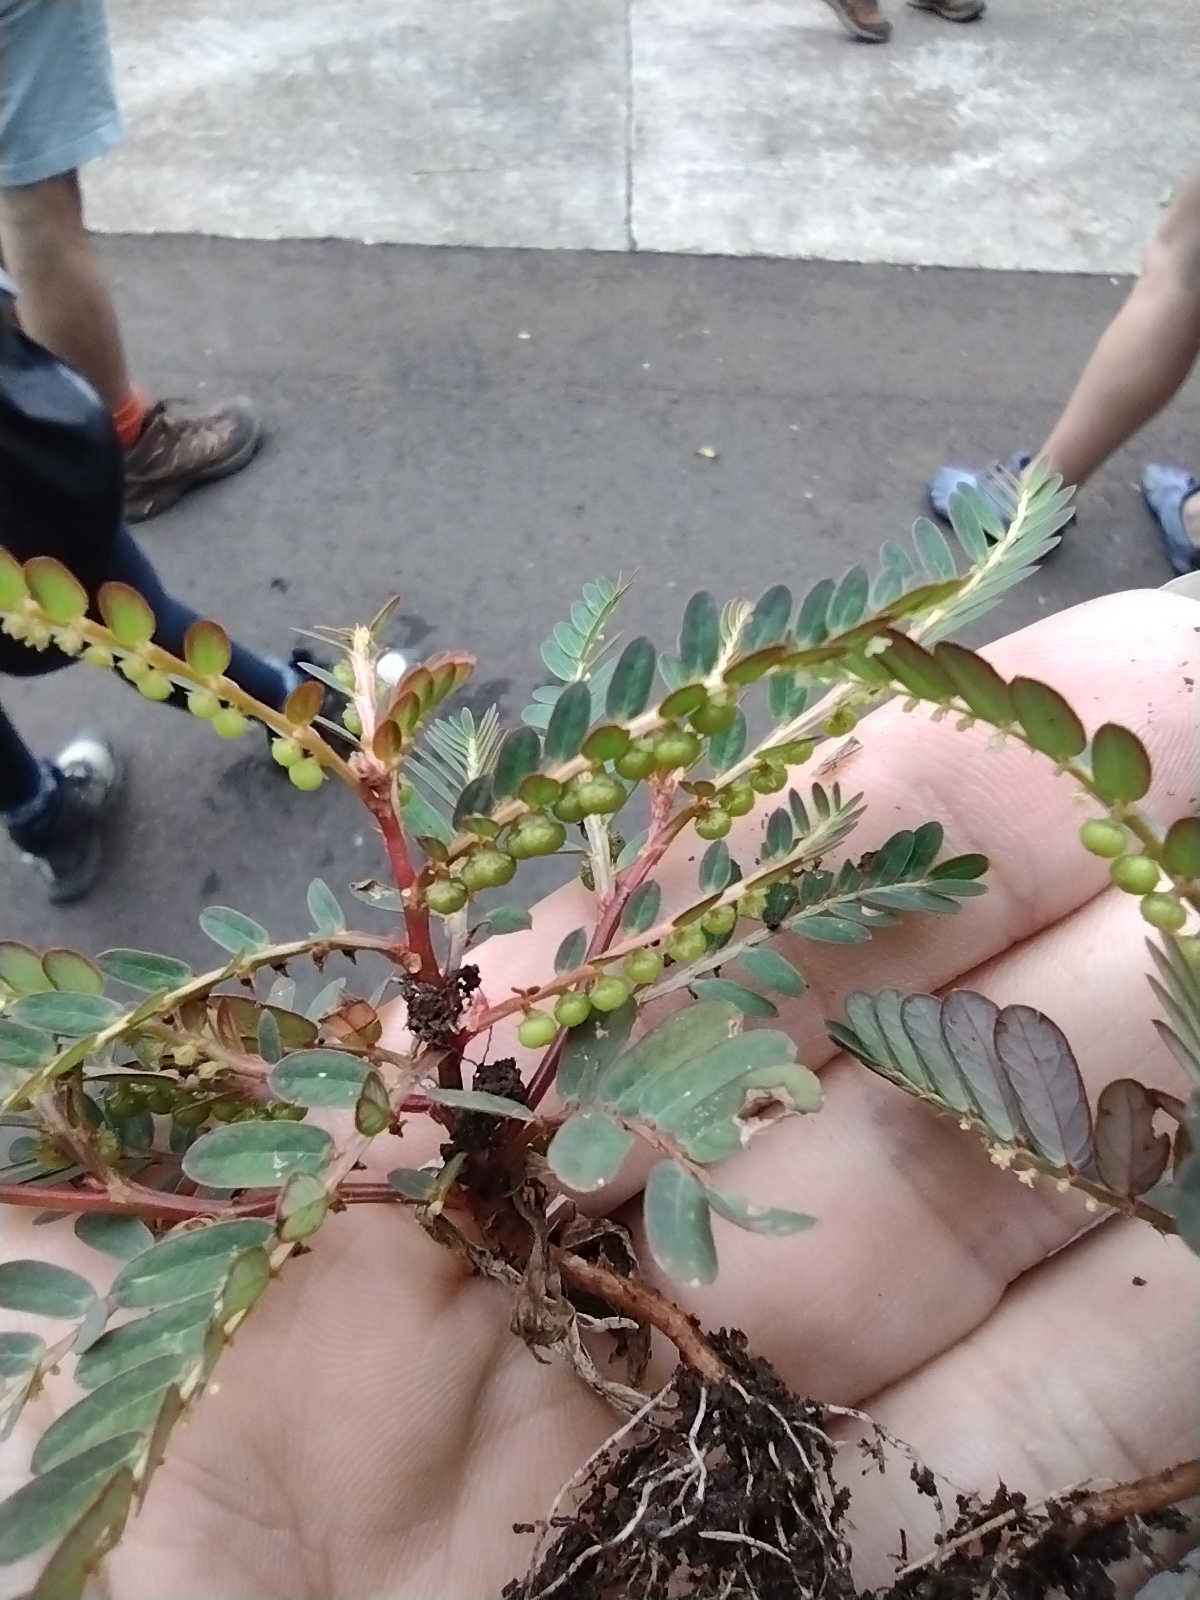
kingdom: Plantae
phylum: Tracheophyta
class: Magnoliopsida
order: Malpighiales
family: Phyllanthaceae
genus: Phyllanthus
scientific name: Phyllanthus urinaria
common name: Chamber bitter
